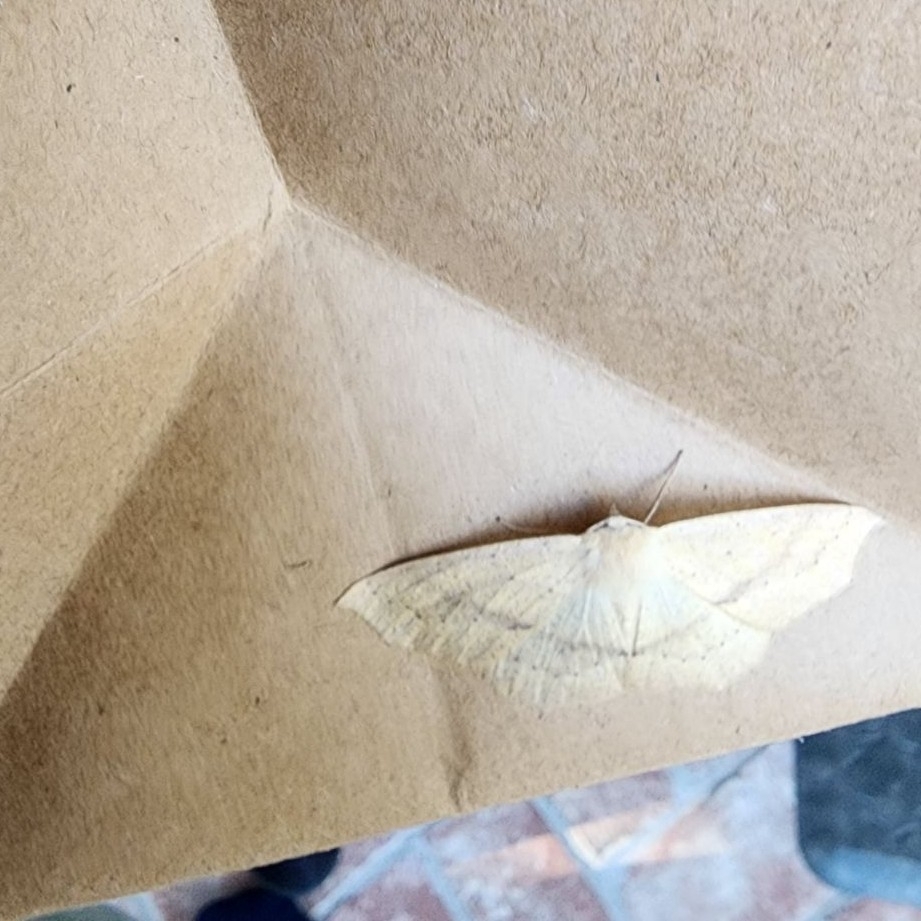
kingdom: Animalia
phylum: Arthropoda
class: Insecta
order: Lepidoptera
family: Geometridae
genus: Sabulodes
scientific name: Sabulodes aegrotata
